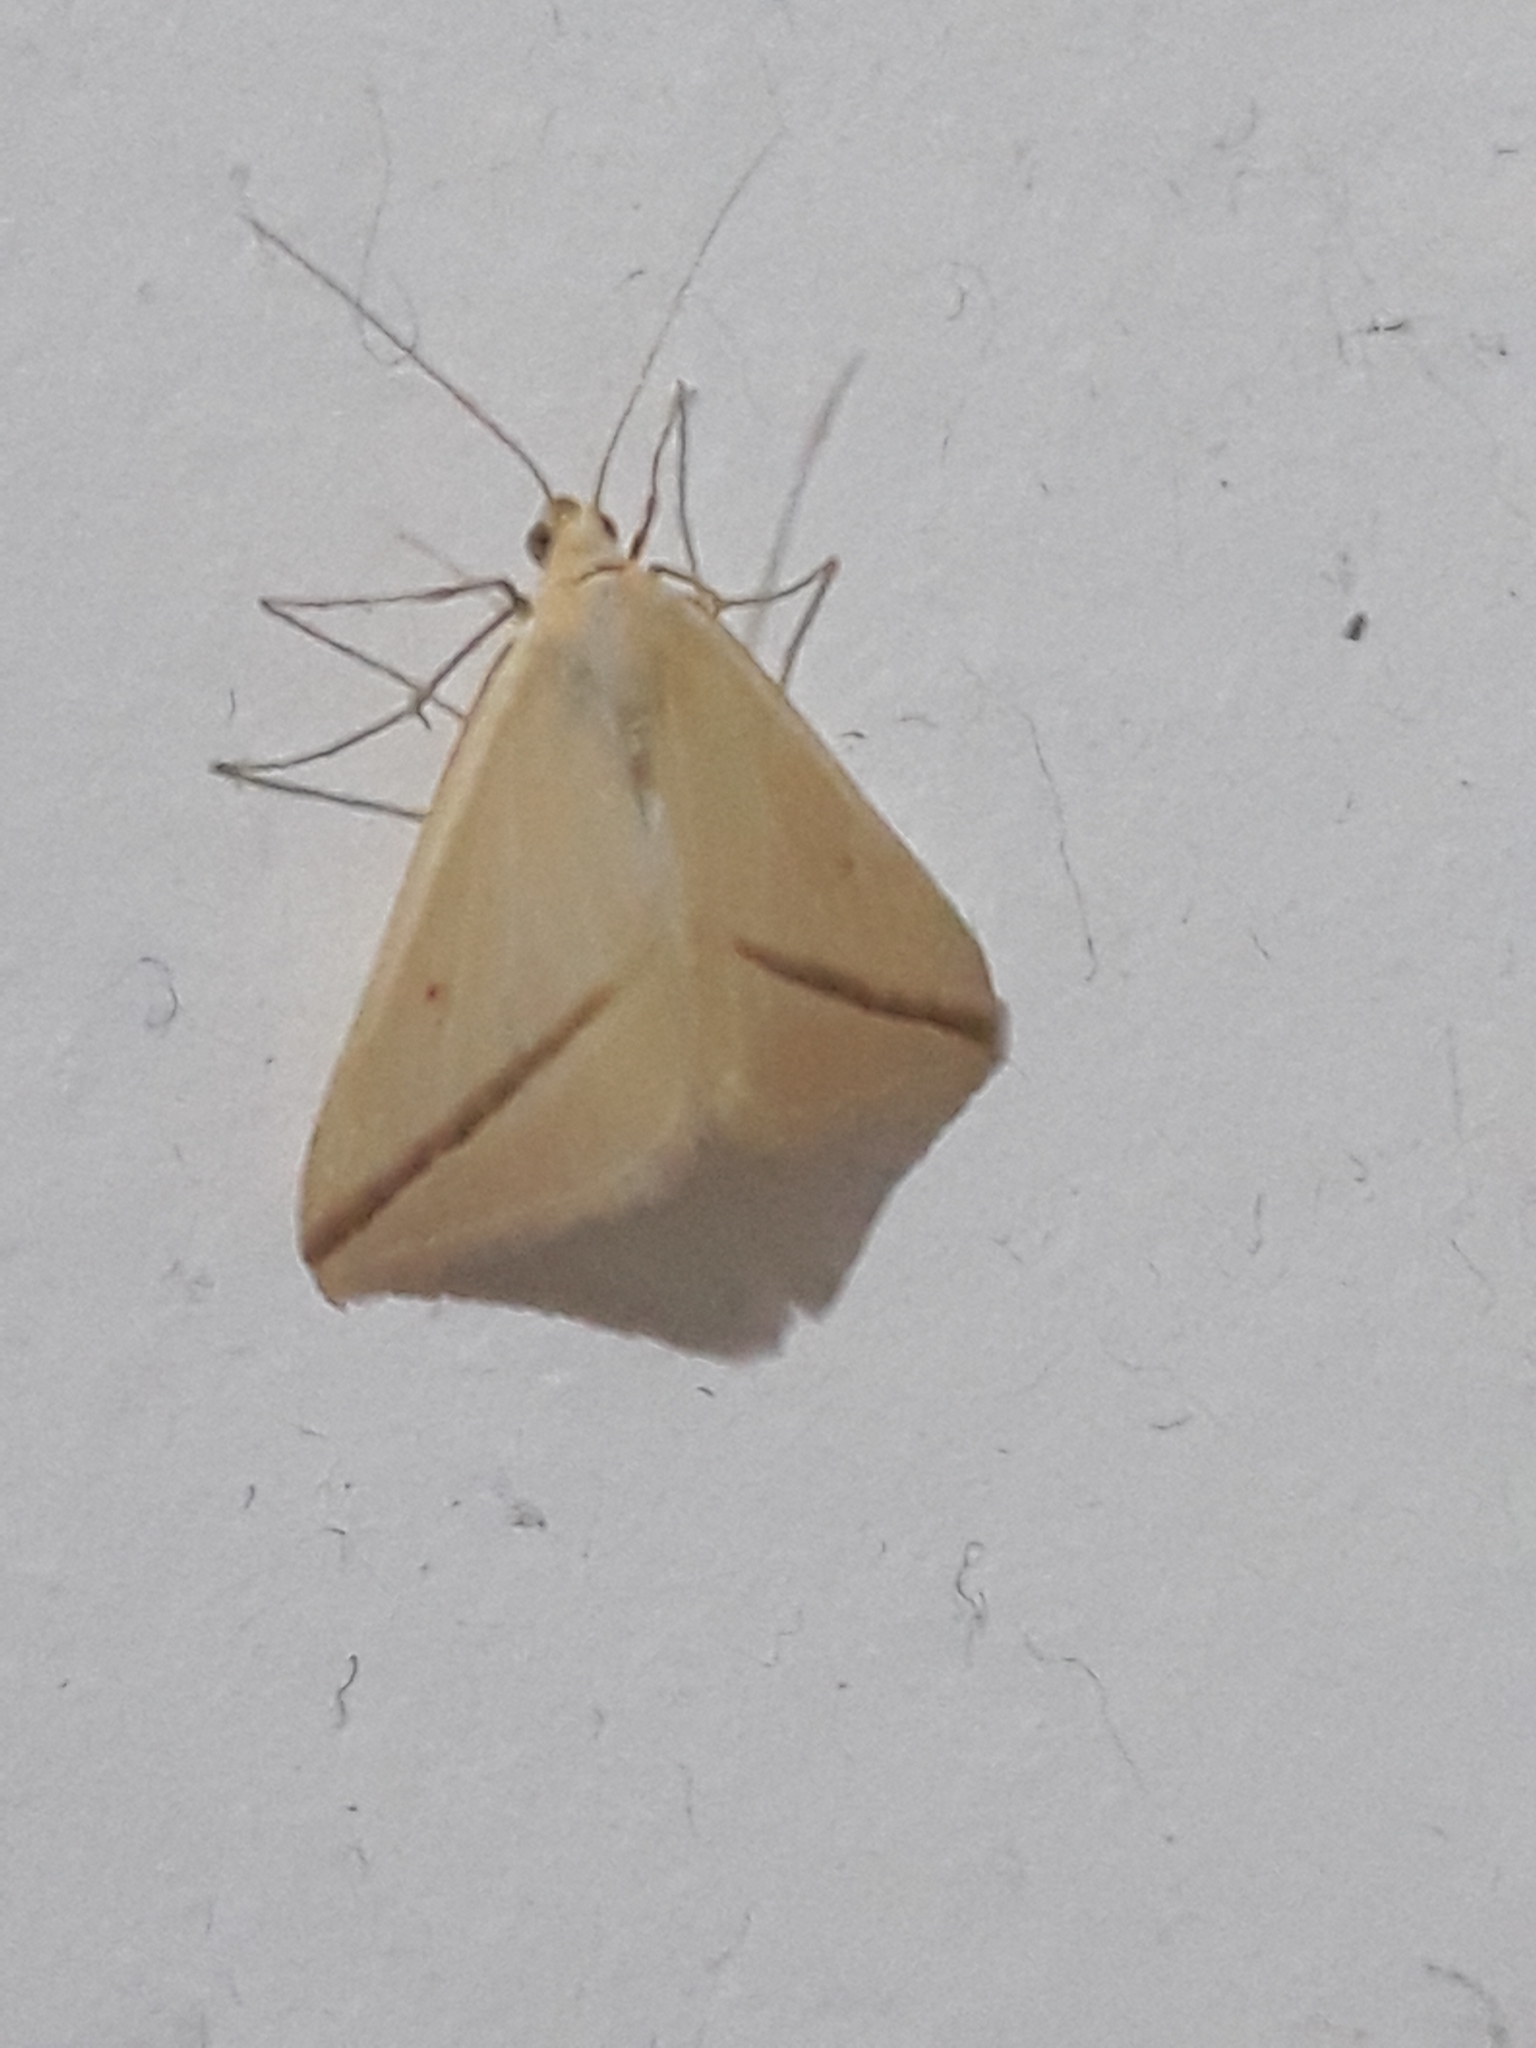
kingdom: Animalia
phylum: Arthropoda
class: Insecta
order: Lepidoptera
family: Geometridae
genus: Rhodometra
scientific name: Rhodometra sacraria
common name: Vestal
